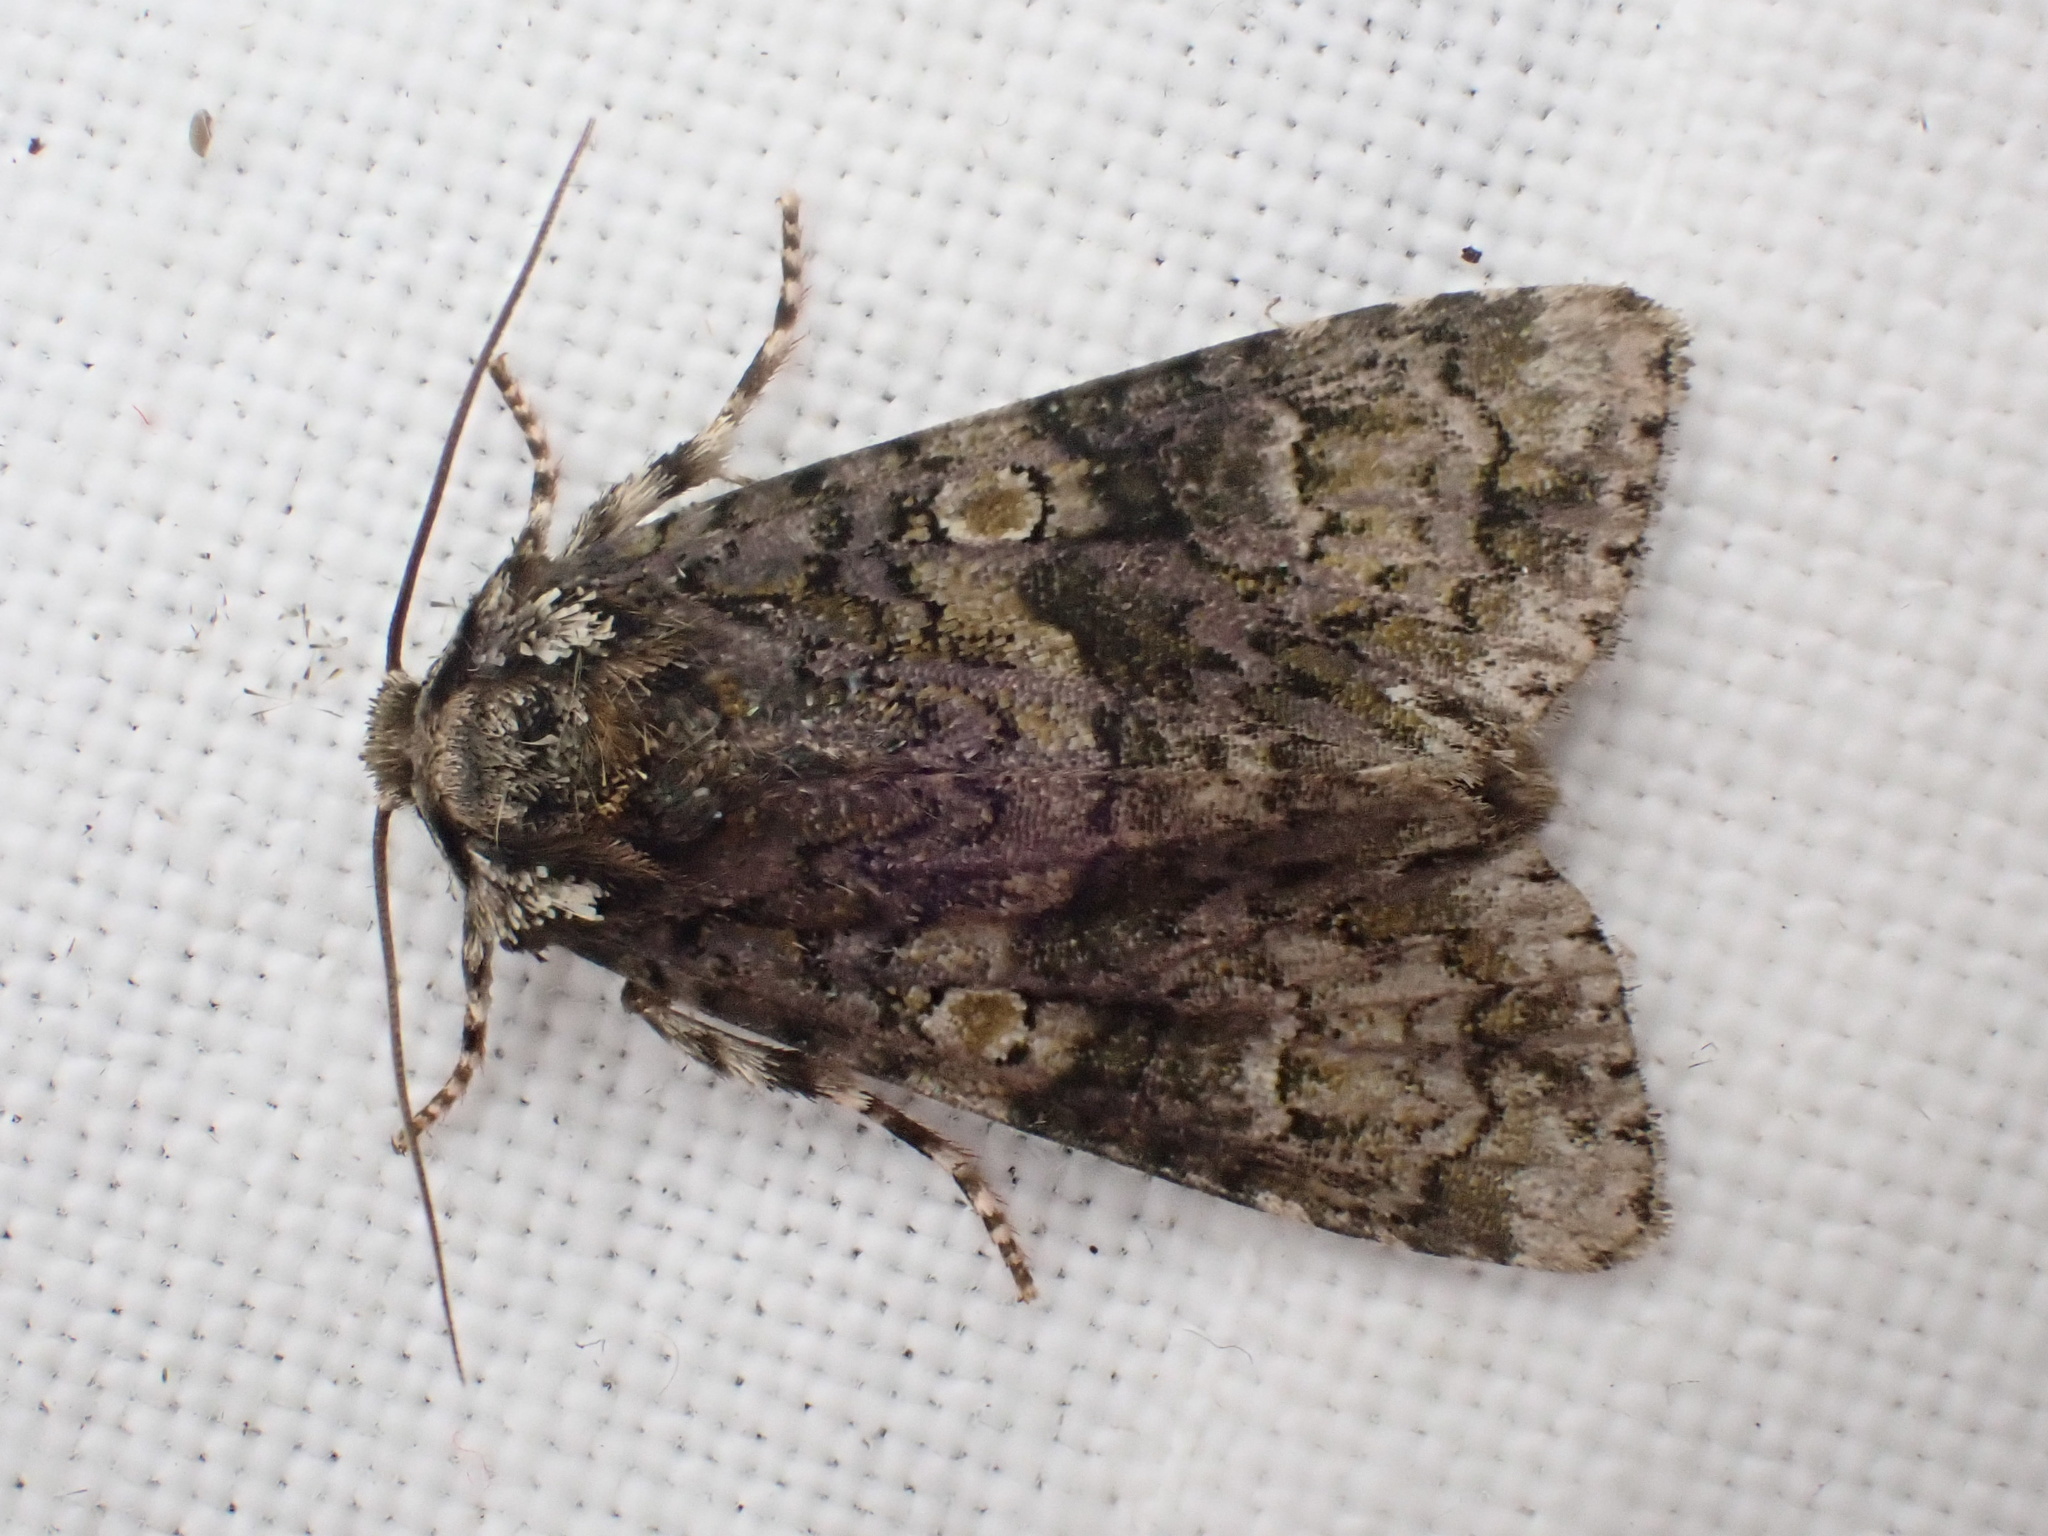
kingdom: Animalia
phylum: Arthropoda
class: Insecta
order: Lepidoptera
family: Noctuidae
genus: Craniophora
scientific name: Craniophora ligustri
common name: Coronet
